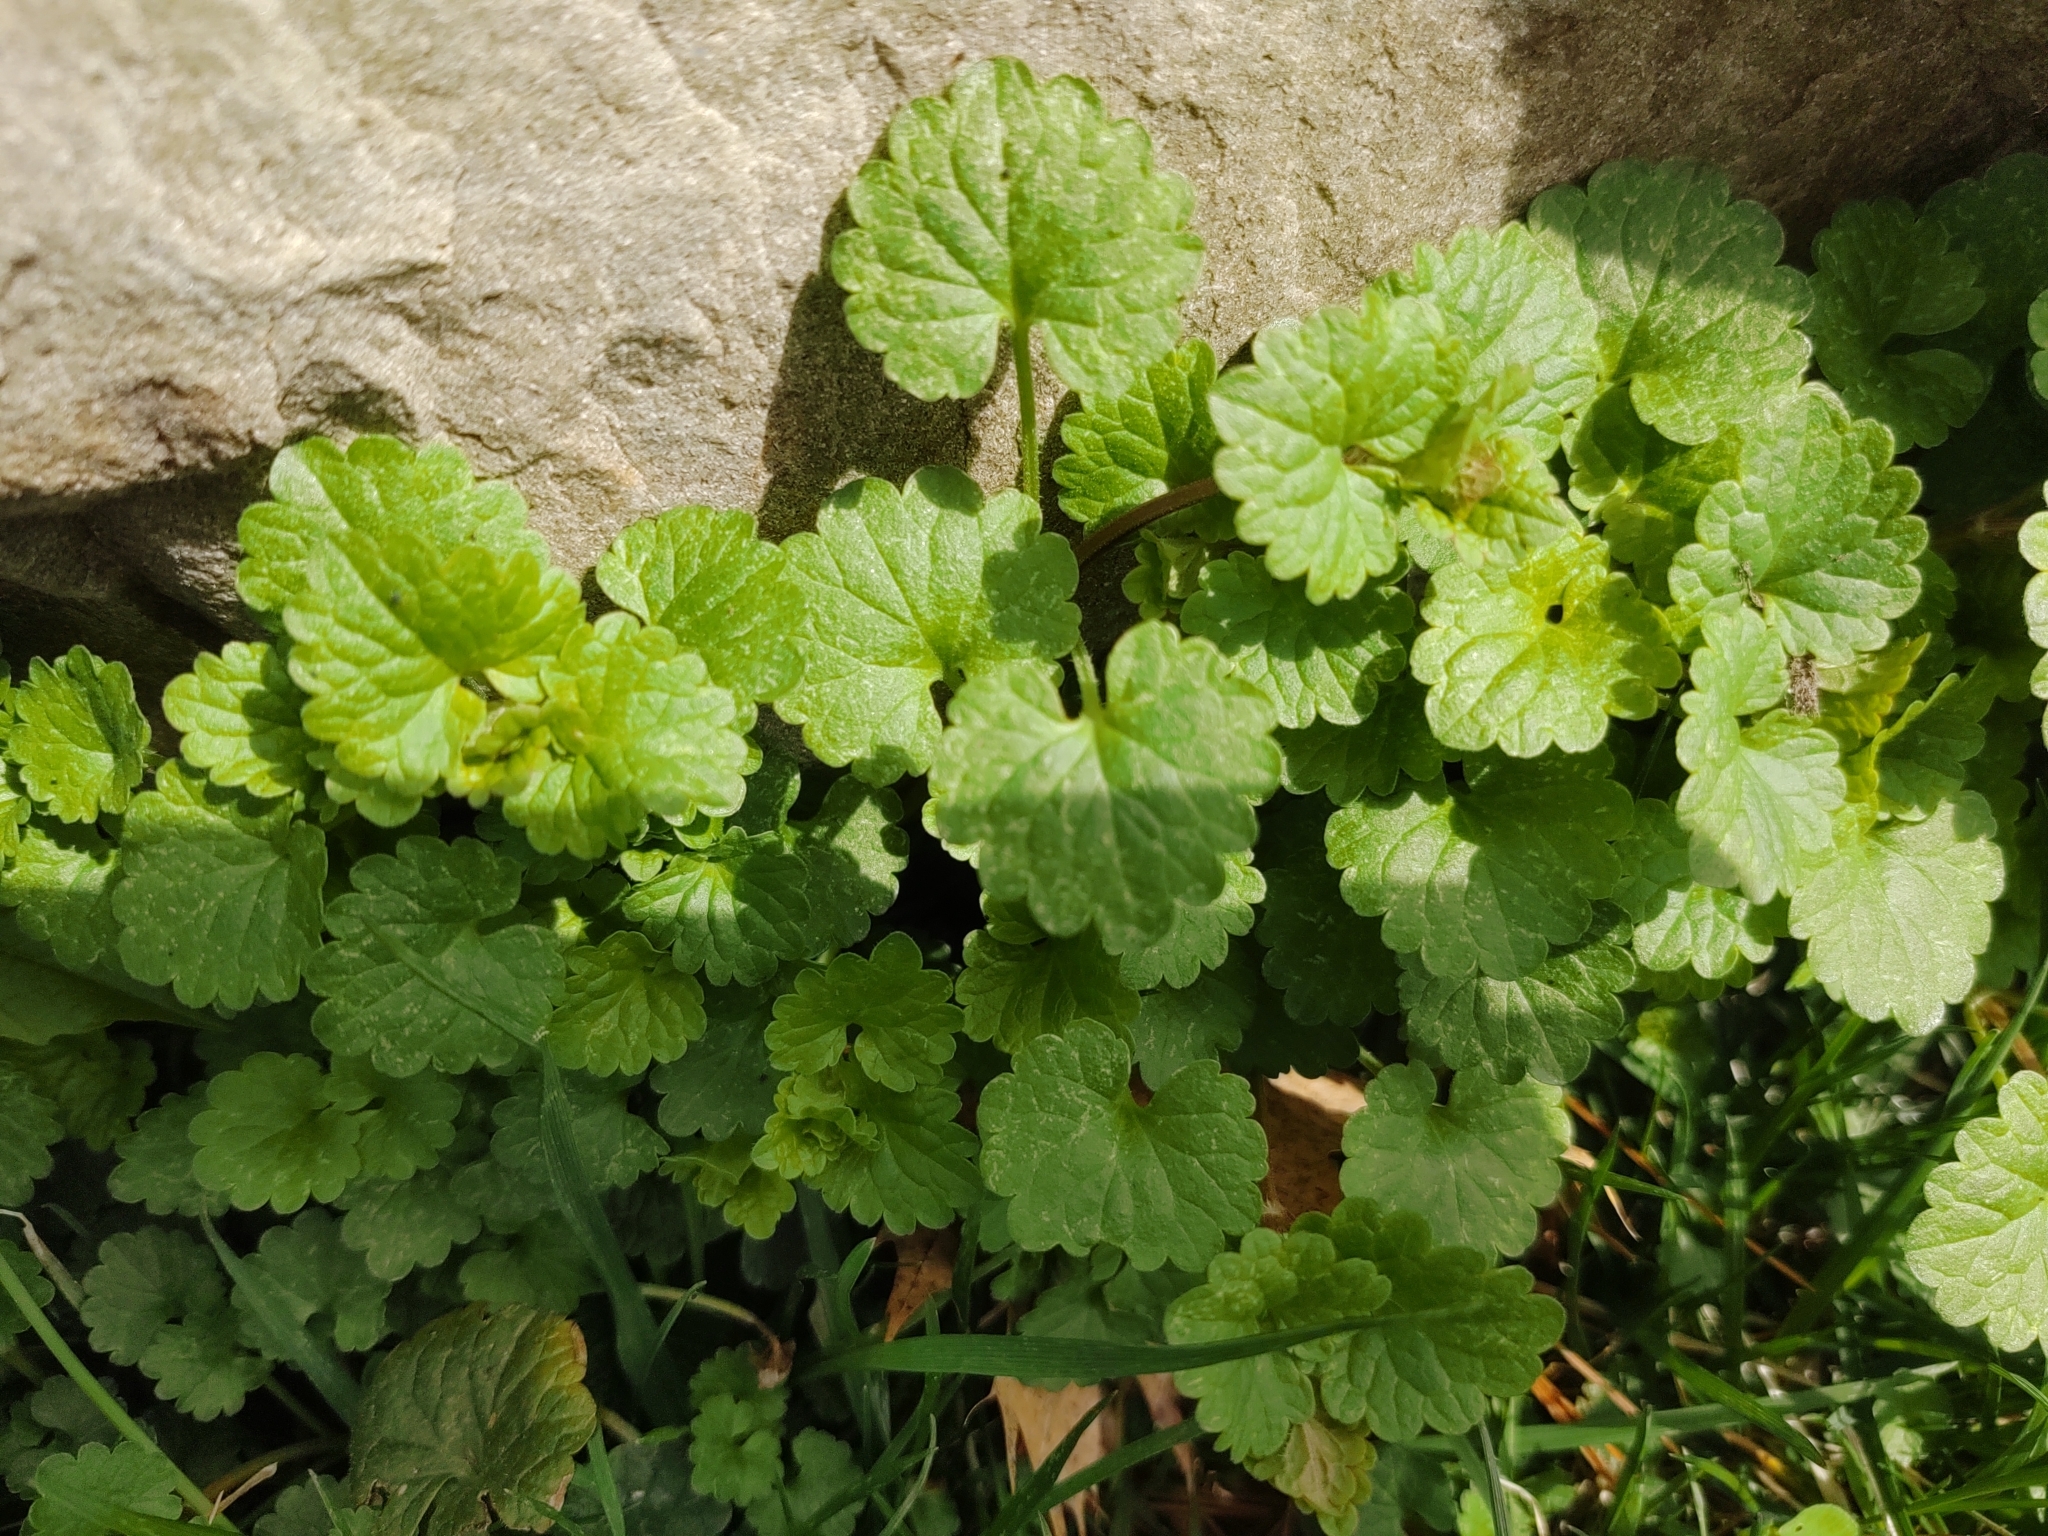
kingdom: Plantae
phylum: Tracheophyta
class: Magnoliopsida
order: Lamiales
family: Lamiaceae
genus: Glechoma
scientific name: Glechoma hederacea
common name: Ground ivy
